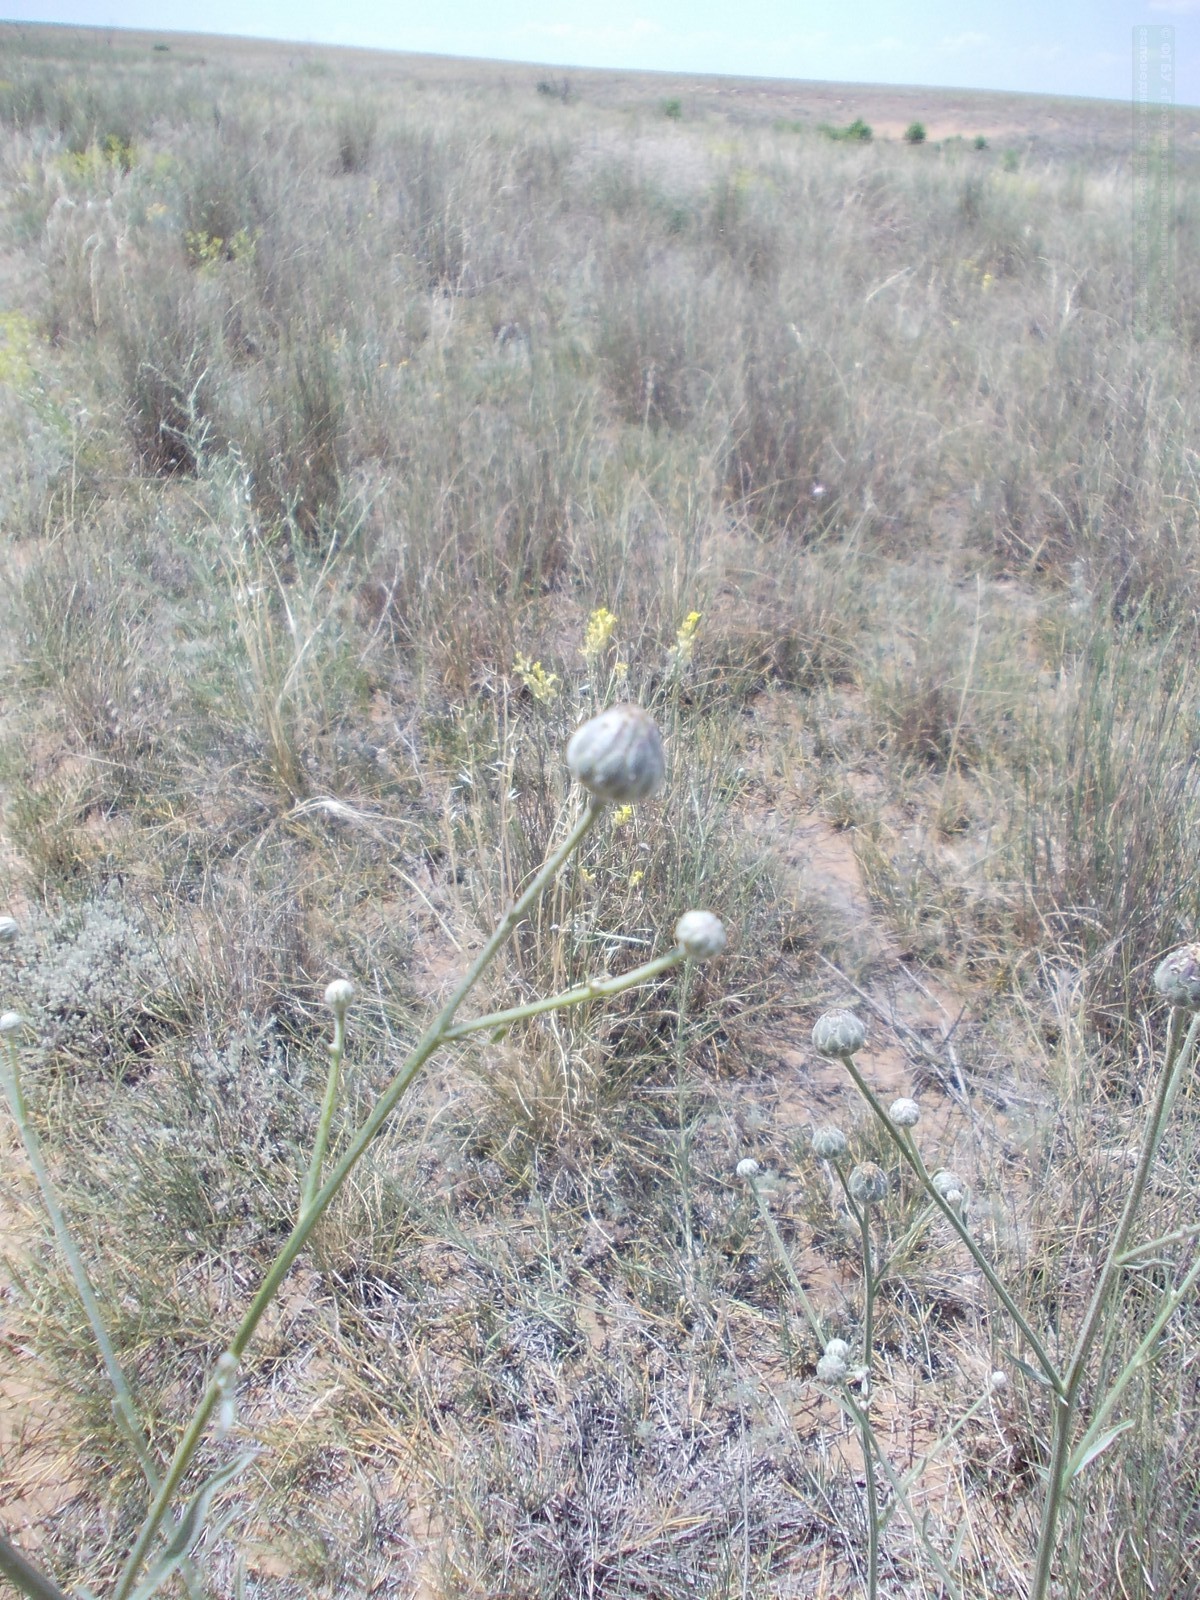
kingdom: Plantae
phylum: Tracheophyta
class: Magnoliopsida
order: Asterales
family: Asteraceae
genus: Centaurea
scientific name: Centaurea adpressa
